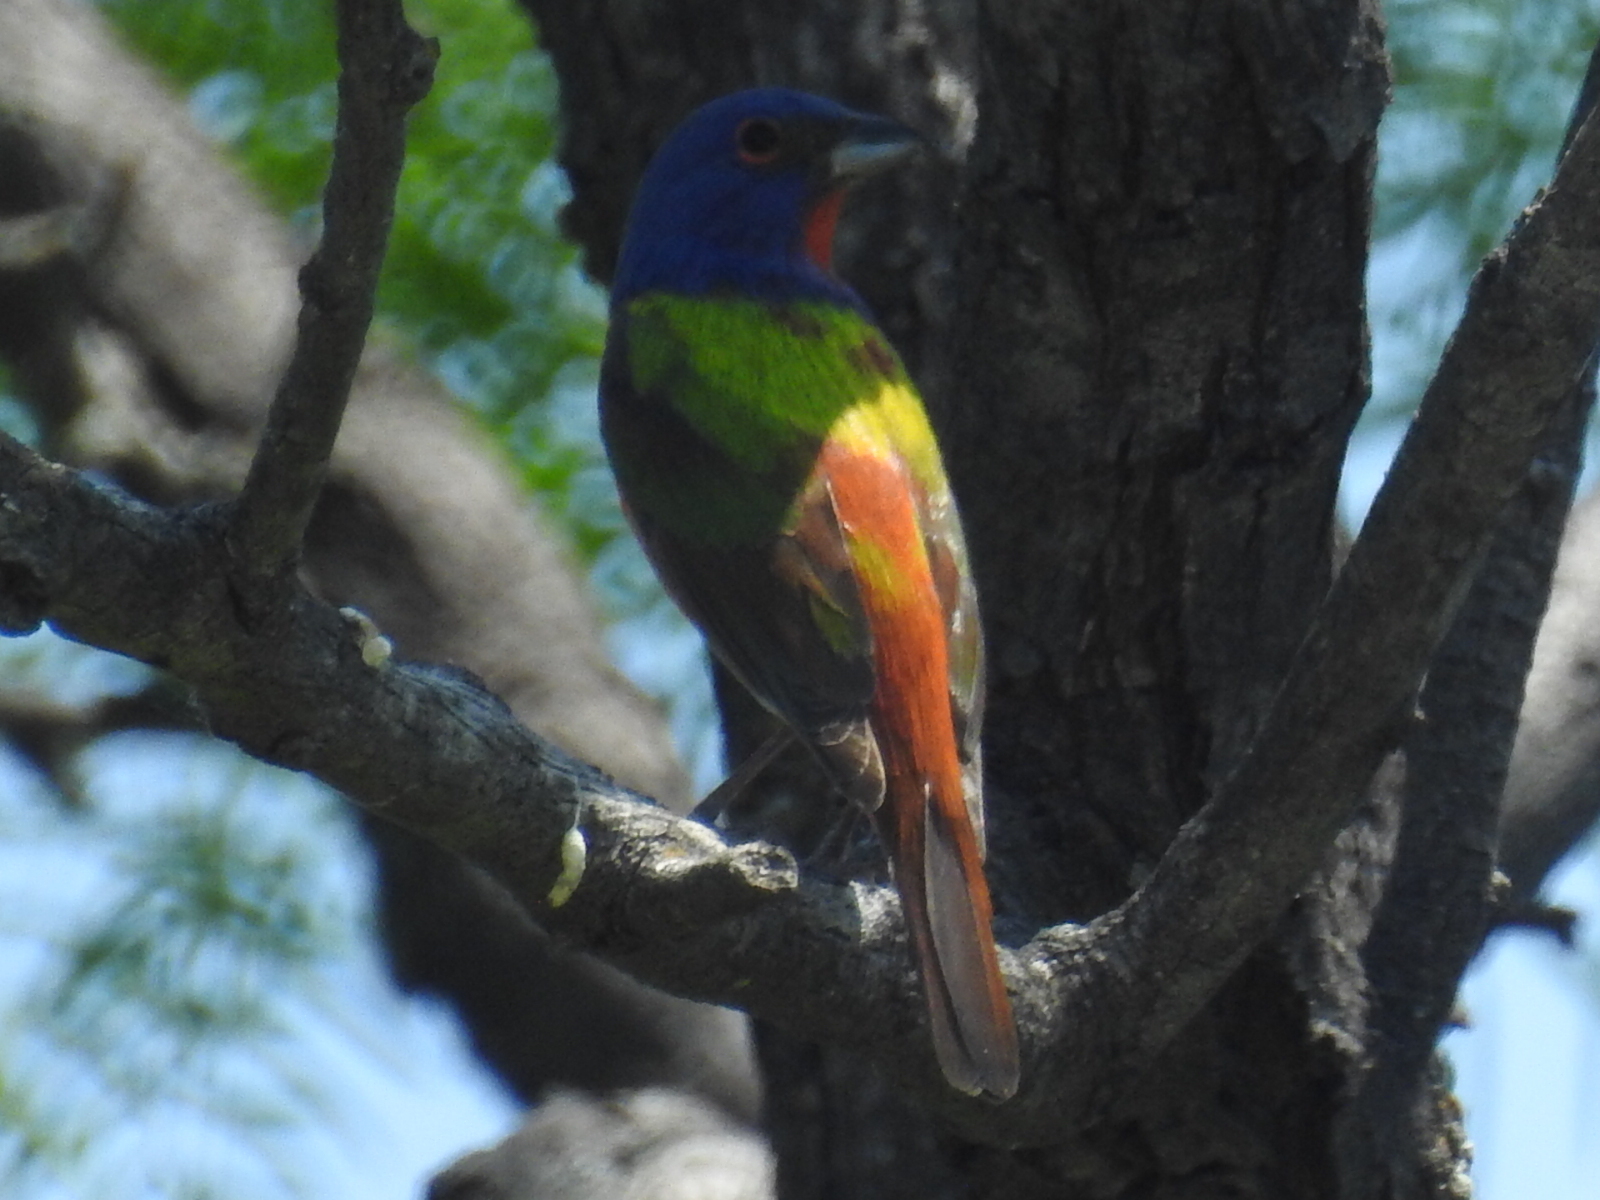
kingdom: Animalia
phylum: Chordata
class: Aves
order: Passeriformes
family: Cardinalidae
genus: Passerina
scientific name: Passerina ciris
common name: Painted bunting
